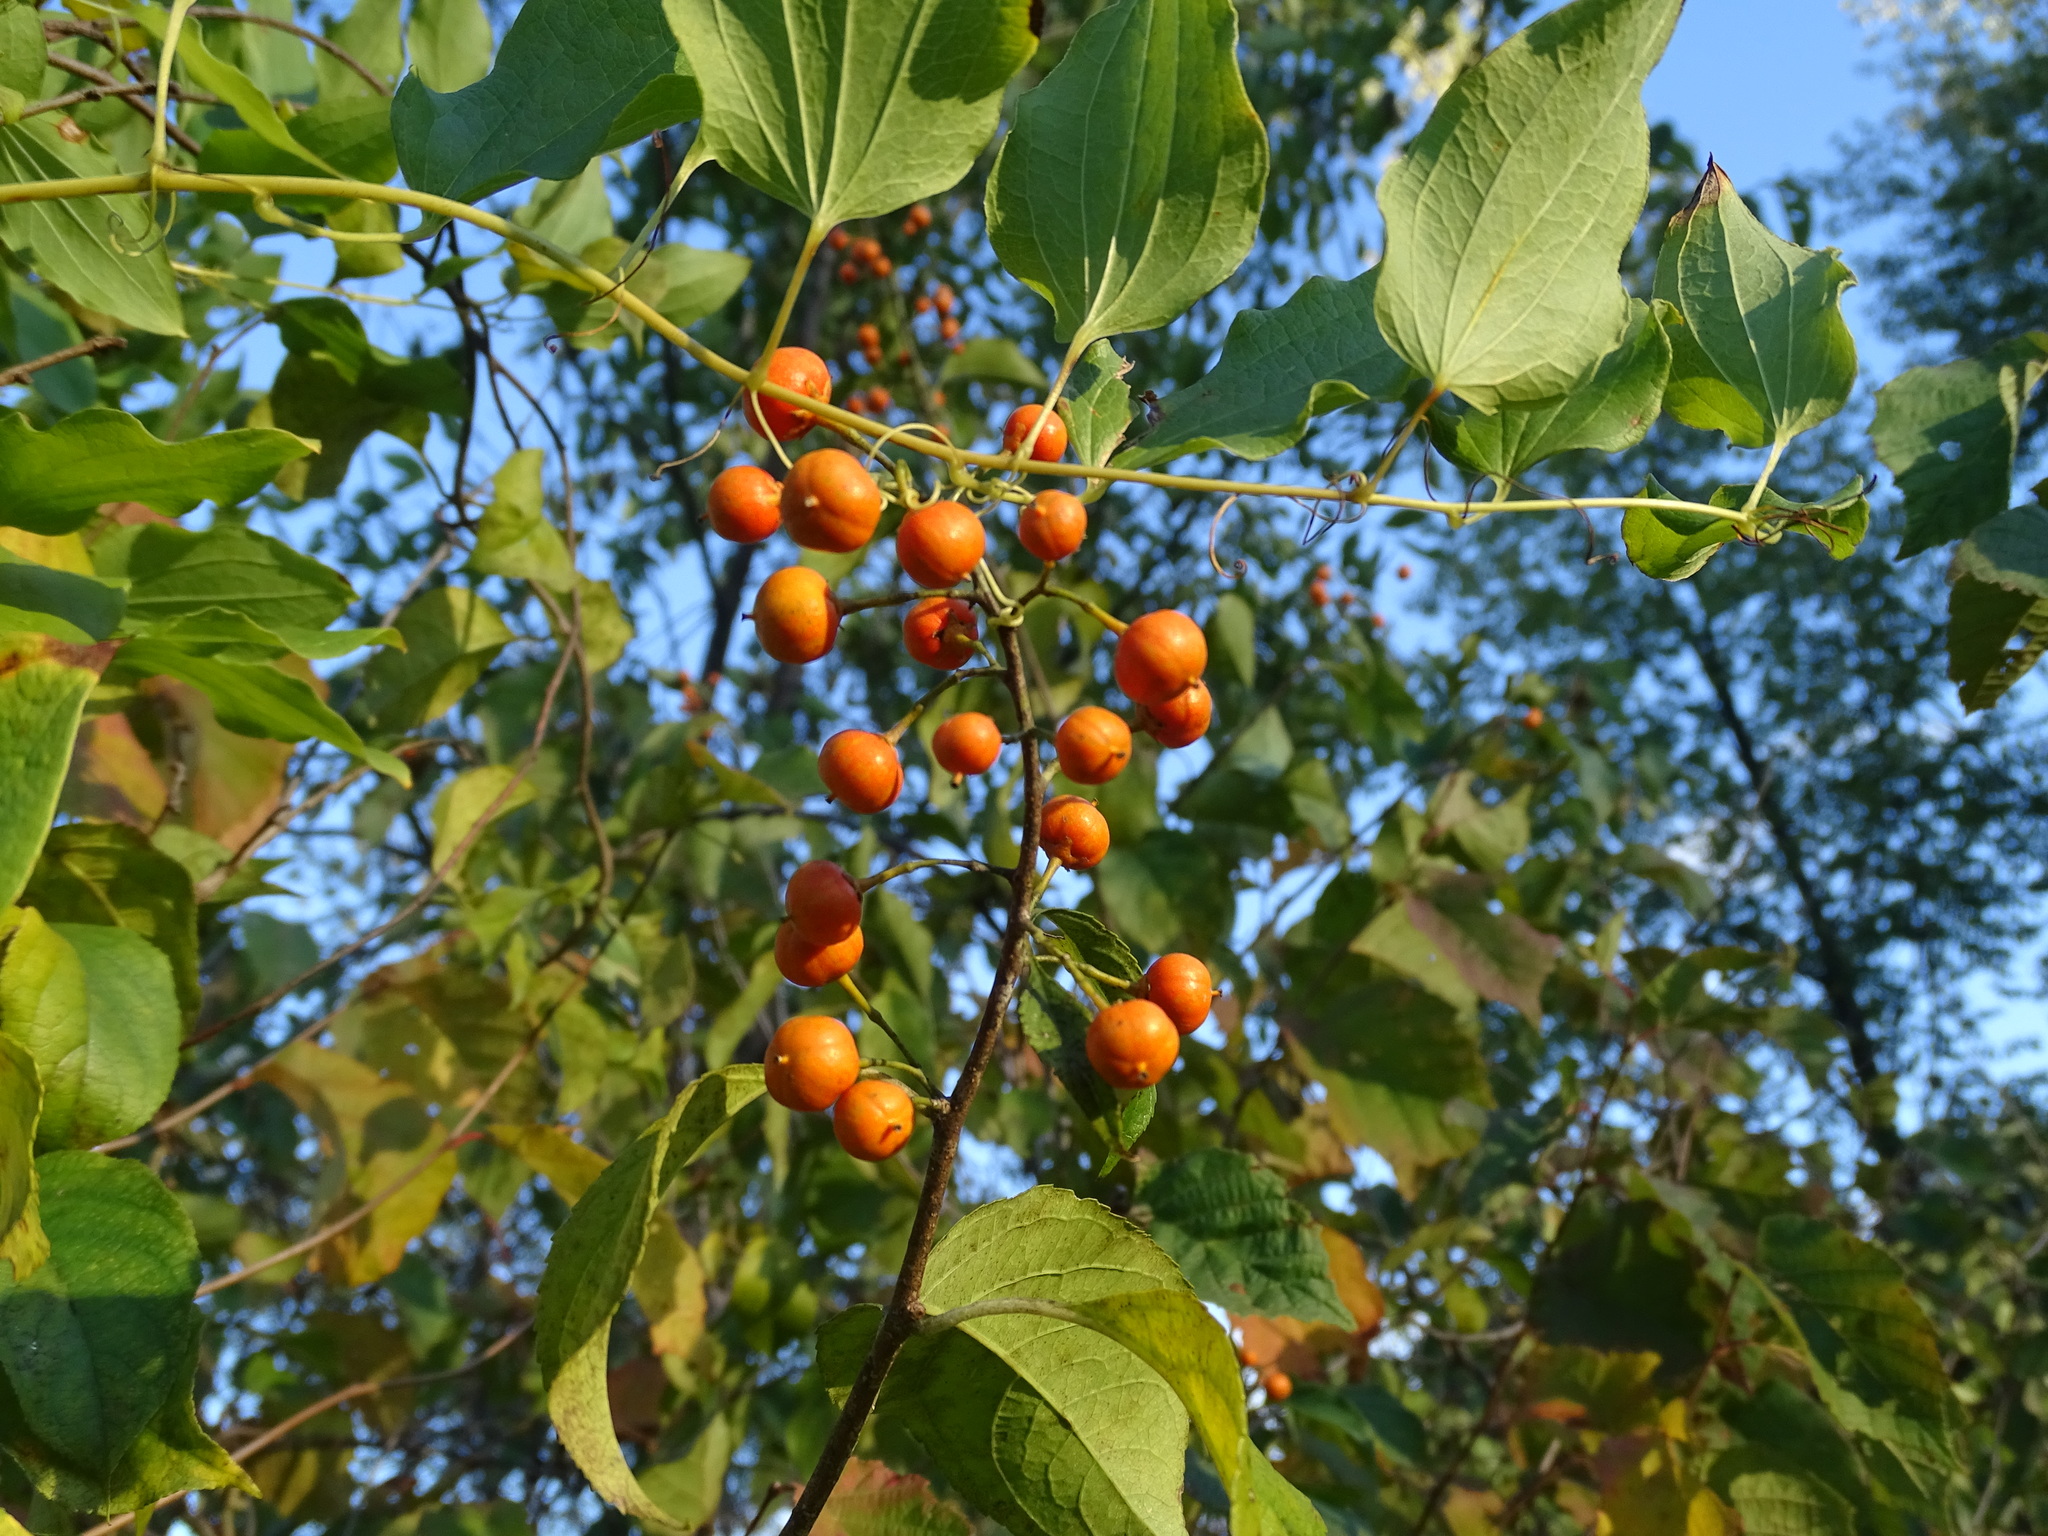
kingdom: Plantae
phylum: Tracheophyta
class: Magnoliopsida
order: Celastrales
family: Celastraceae
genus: Celastrus
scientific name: Celastrus scandens
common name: American bittersweet
